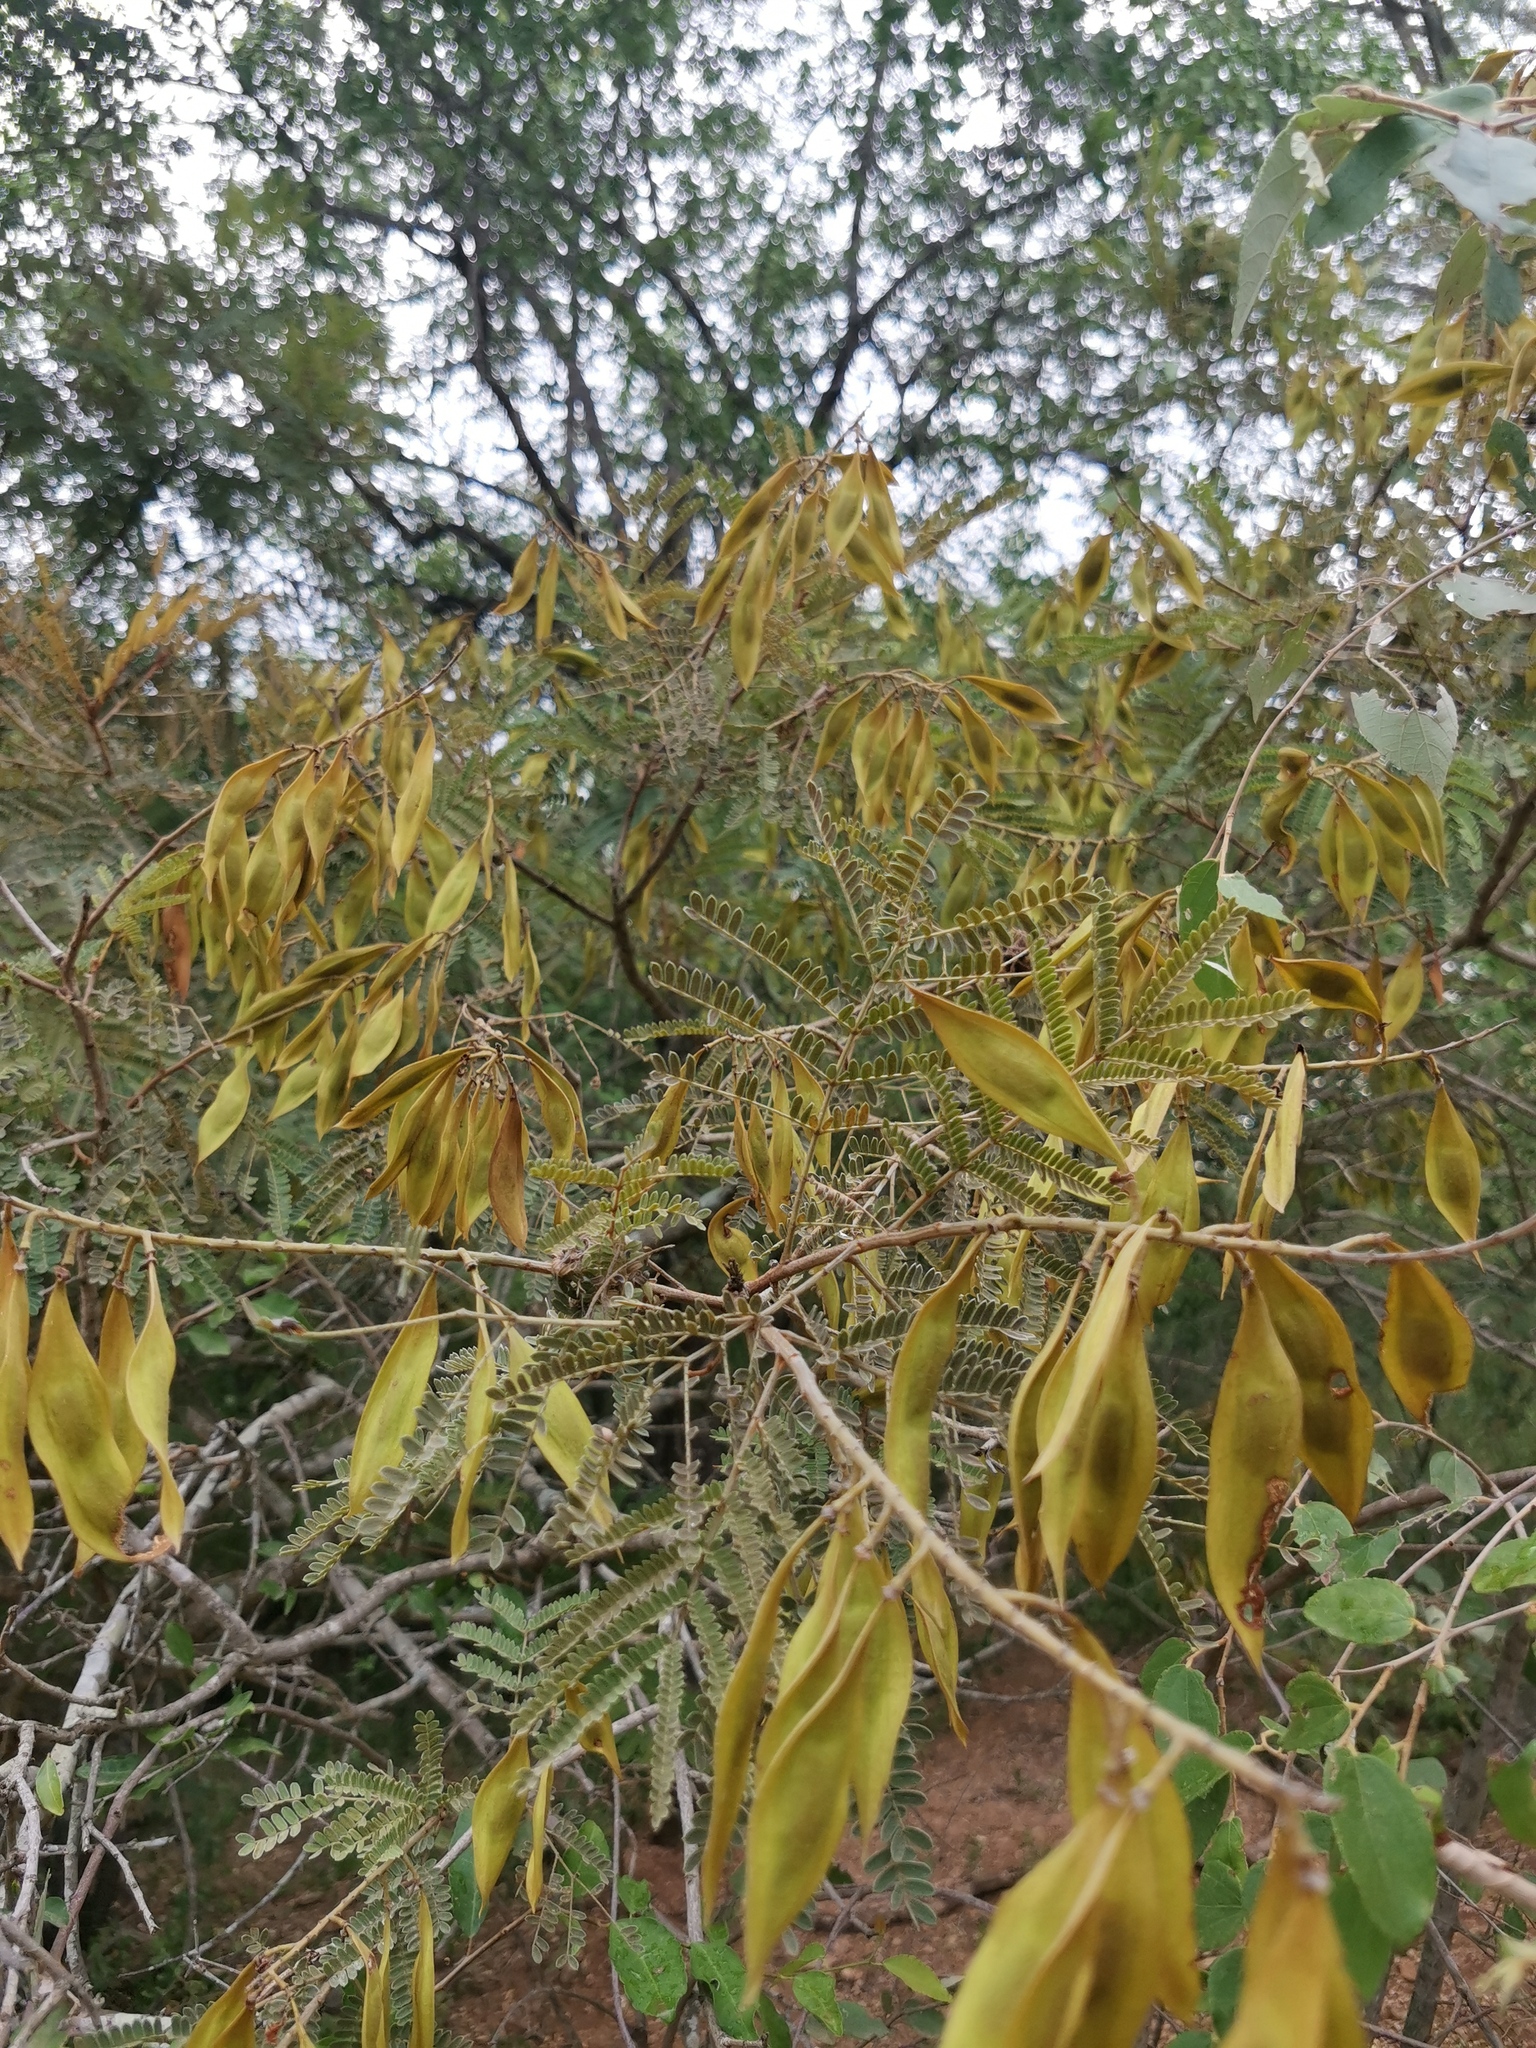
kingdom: Plantae
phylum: Tracheophyta
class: Magnoliopsida
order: Fabales
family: Fabaceae
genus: Peltophorum
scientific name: Peltophorum africanum
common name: African black wattle
